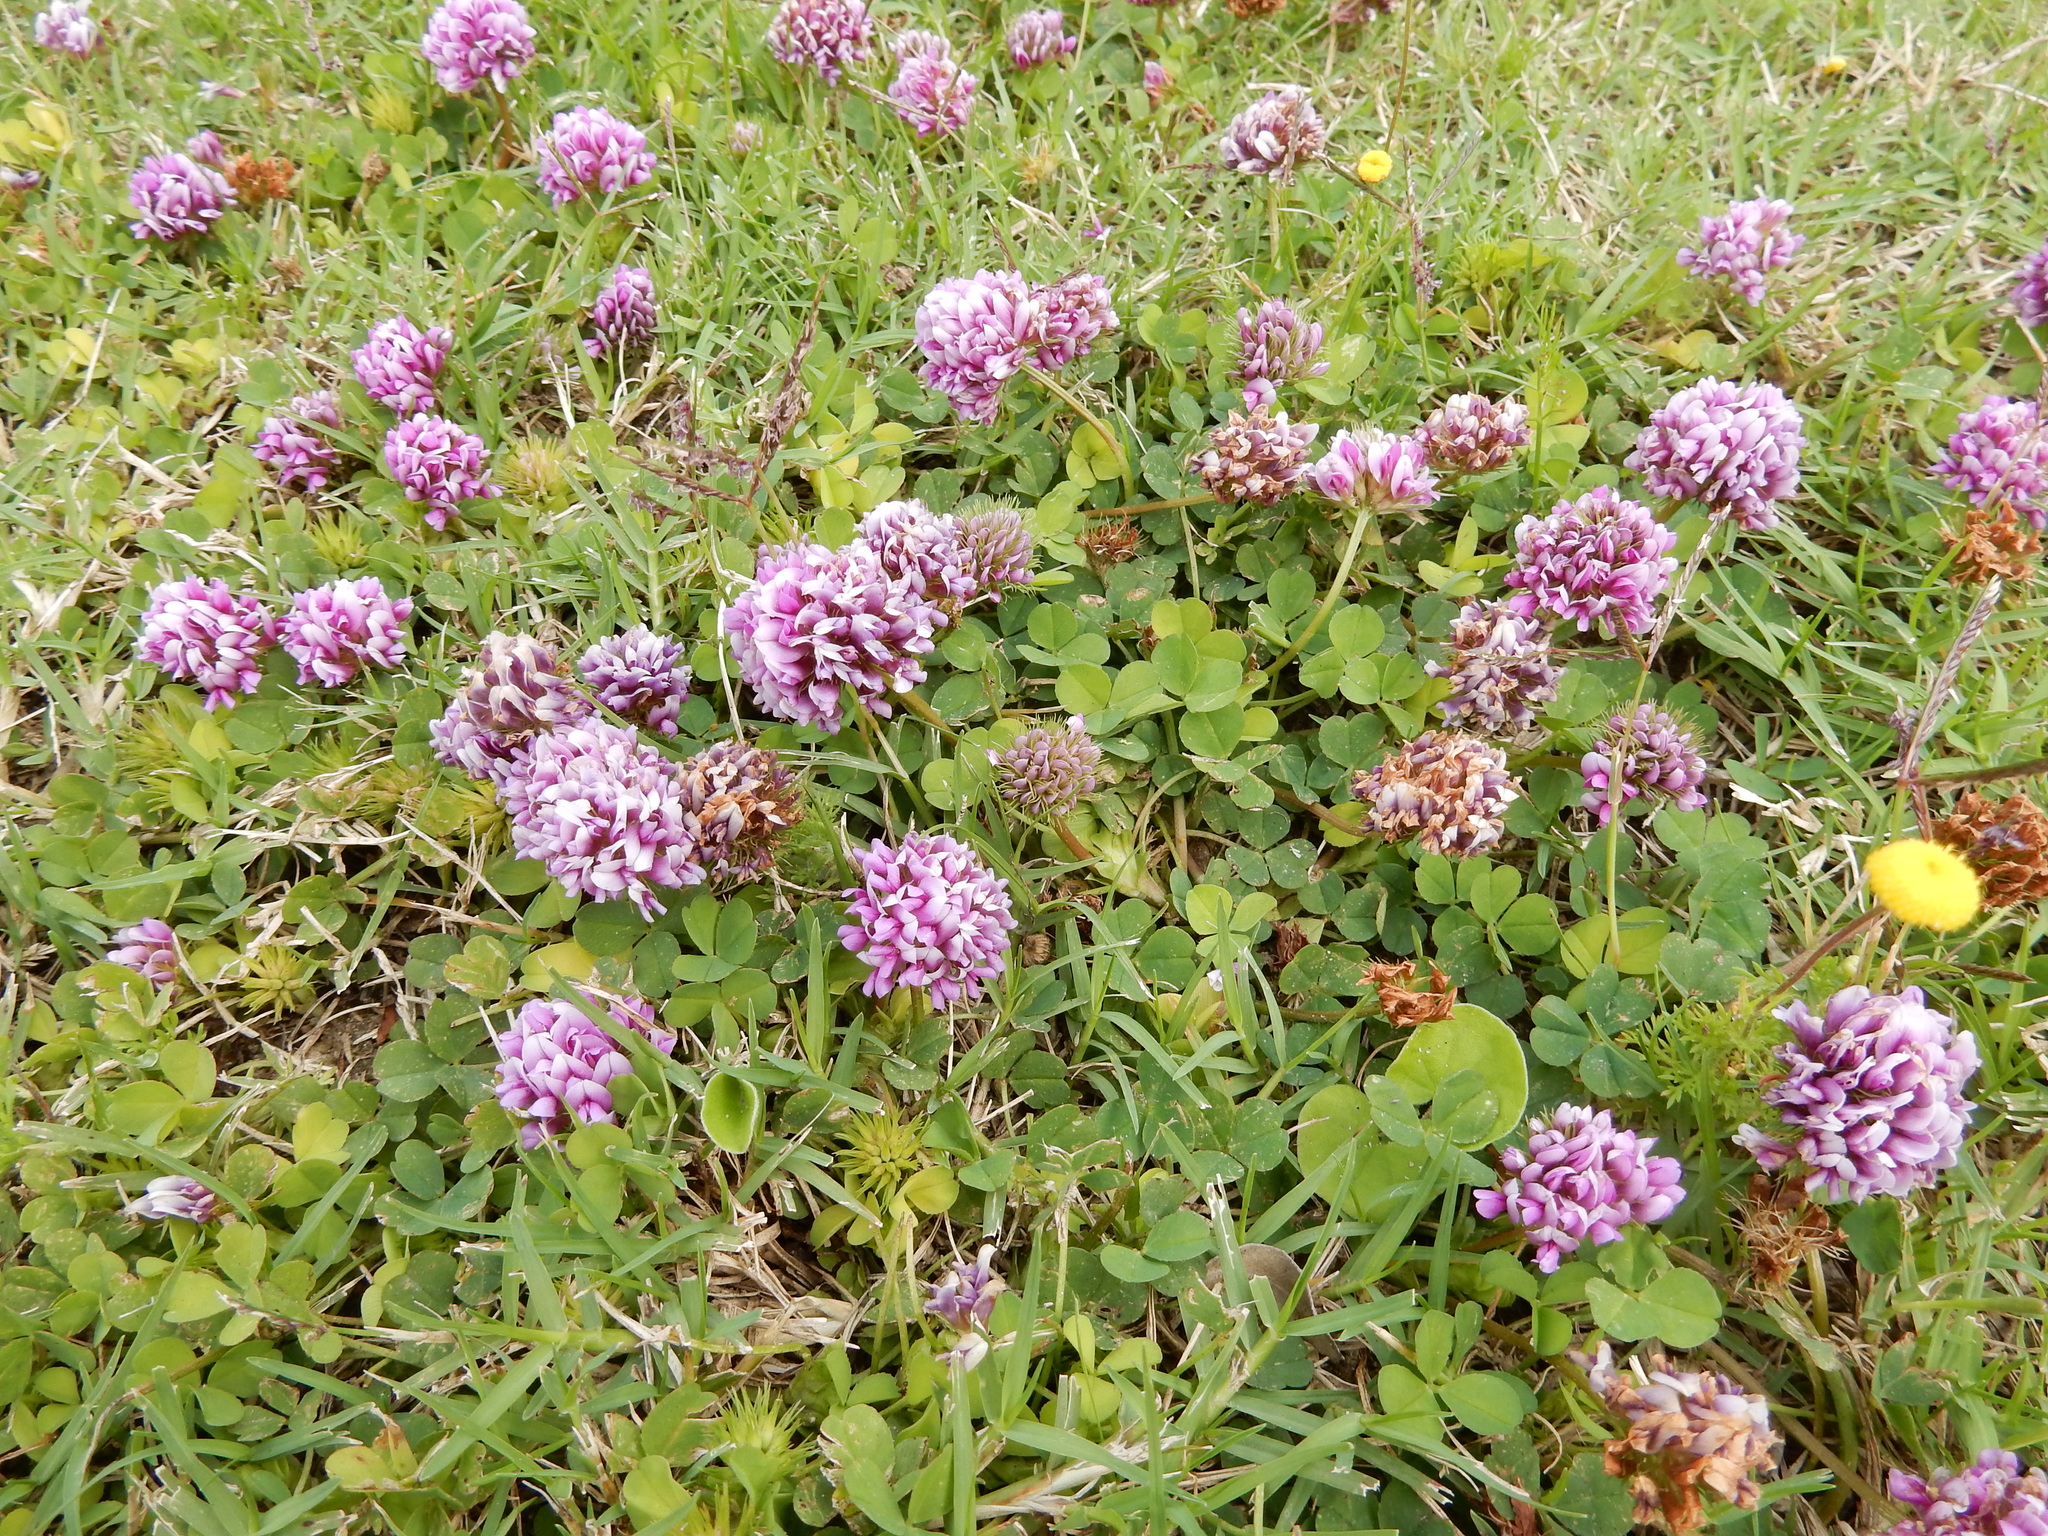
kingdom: Plantae
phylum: Tracheophyta
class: Magnoliopsida
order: Fabales
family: Fabaceae
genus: Trifolium
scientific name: Trifolium burchellianum
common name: Burchell's clover
